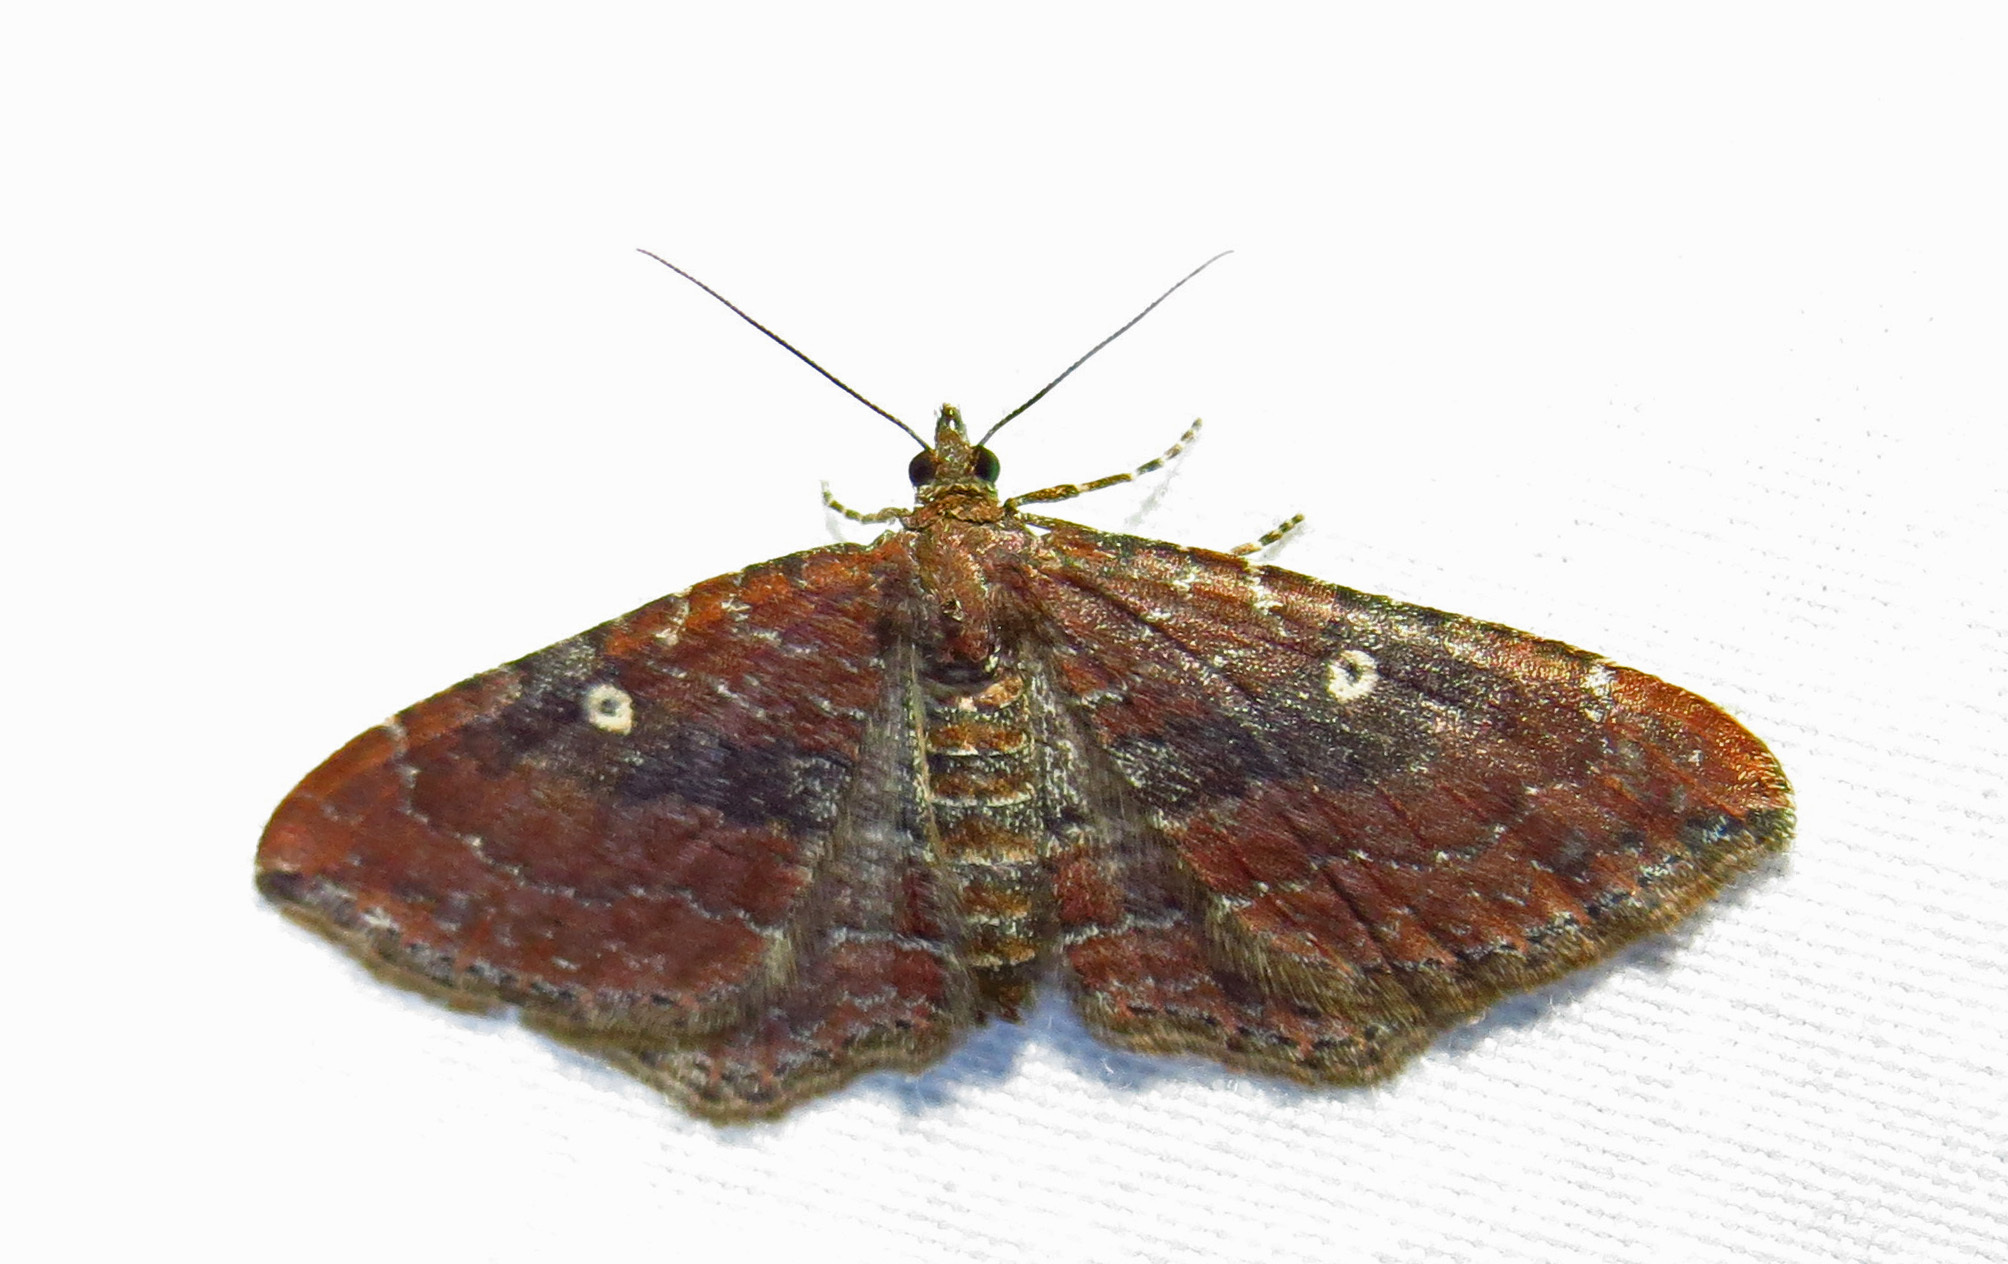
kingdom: Animalia
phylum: Arthropoda
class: Insecta
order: Lepidoptera
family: Geometridae
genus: Orthonama
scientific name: Orthonama obstipata
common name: The gem
